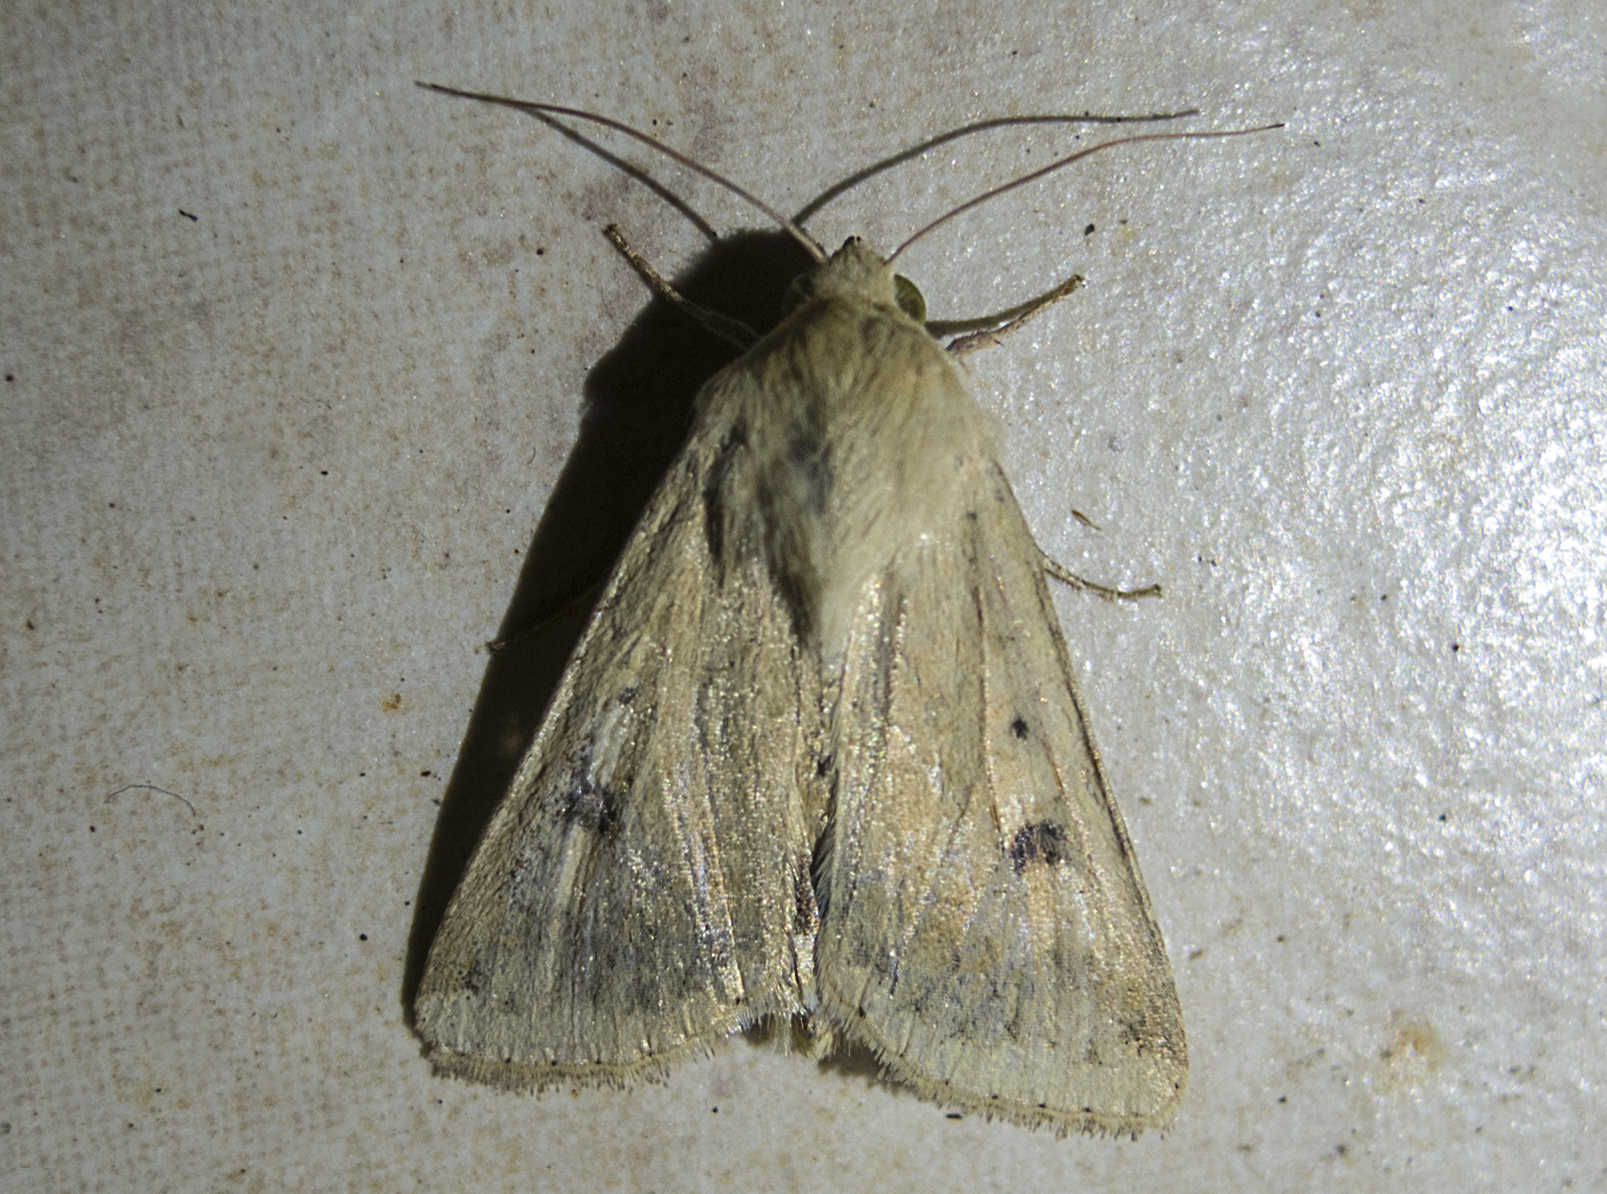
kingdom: Animalia
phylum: Arthropoda
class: Insecta
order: Lepidoptera
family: Noctuidae
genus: Helicoverpa
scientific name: Helicoverpa armigera
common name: Cotton bollworm
